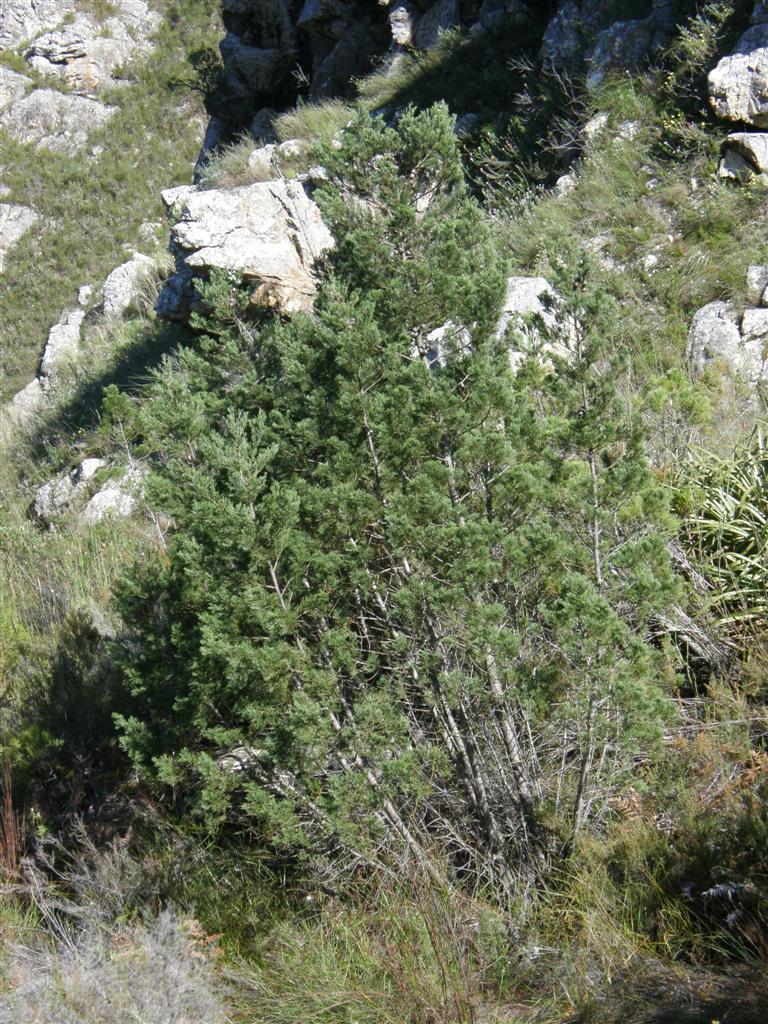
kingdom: Plantae
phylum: Tracheophyta
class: Pinopsida
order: Pinales
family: Cupressaceae
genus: Widdringtonia
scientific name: Widdringtonia nodiflora
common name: Cape cypress
